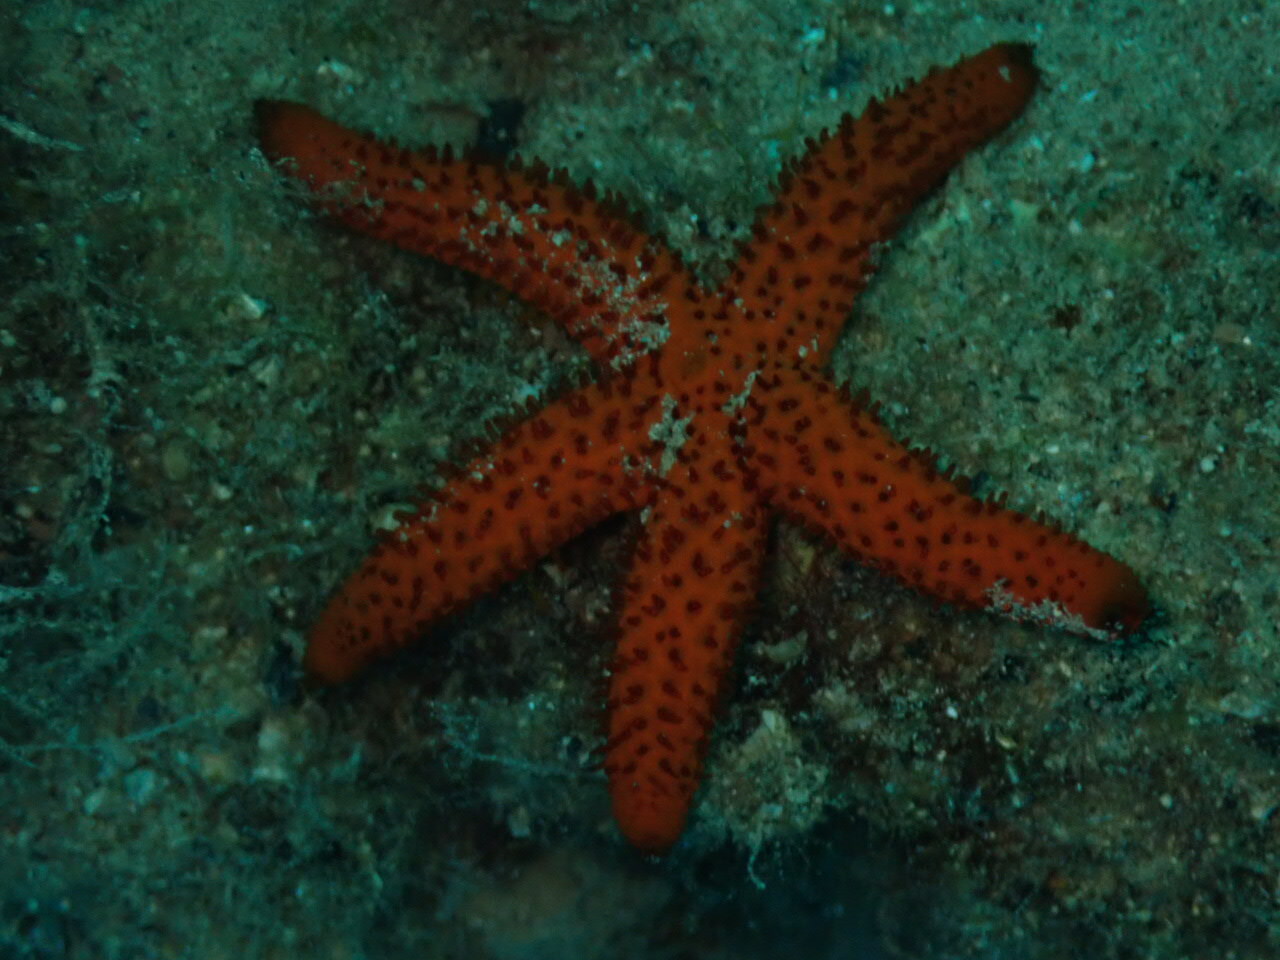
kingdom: Animalia
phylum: Echinodermata
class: Asteroidea
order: Spinulosida
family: Echinasteridae
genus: Echinaster
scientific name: Echinaster sepositus
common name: Red starfish
